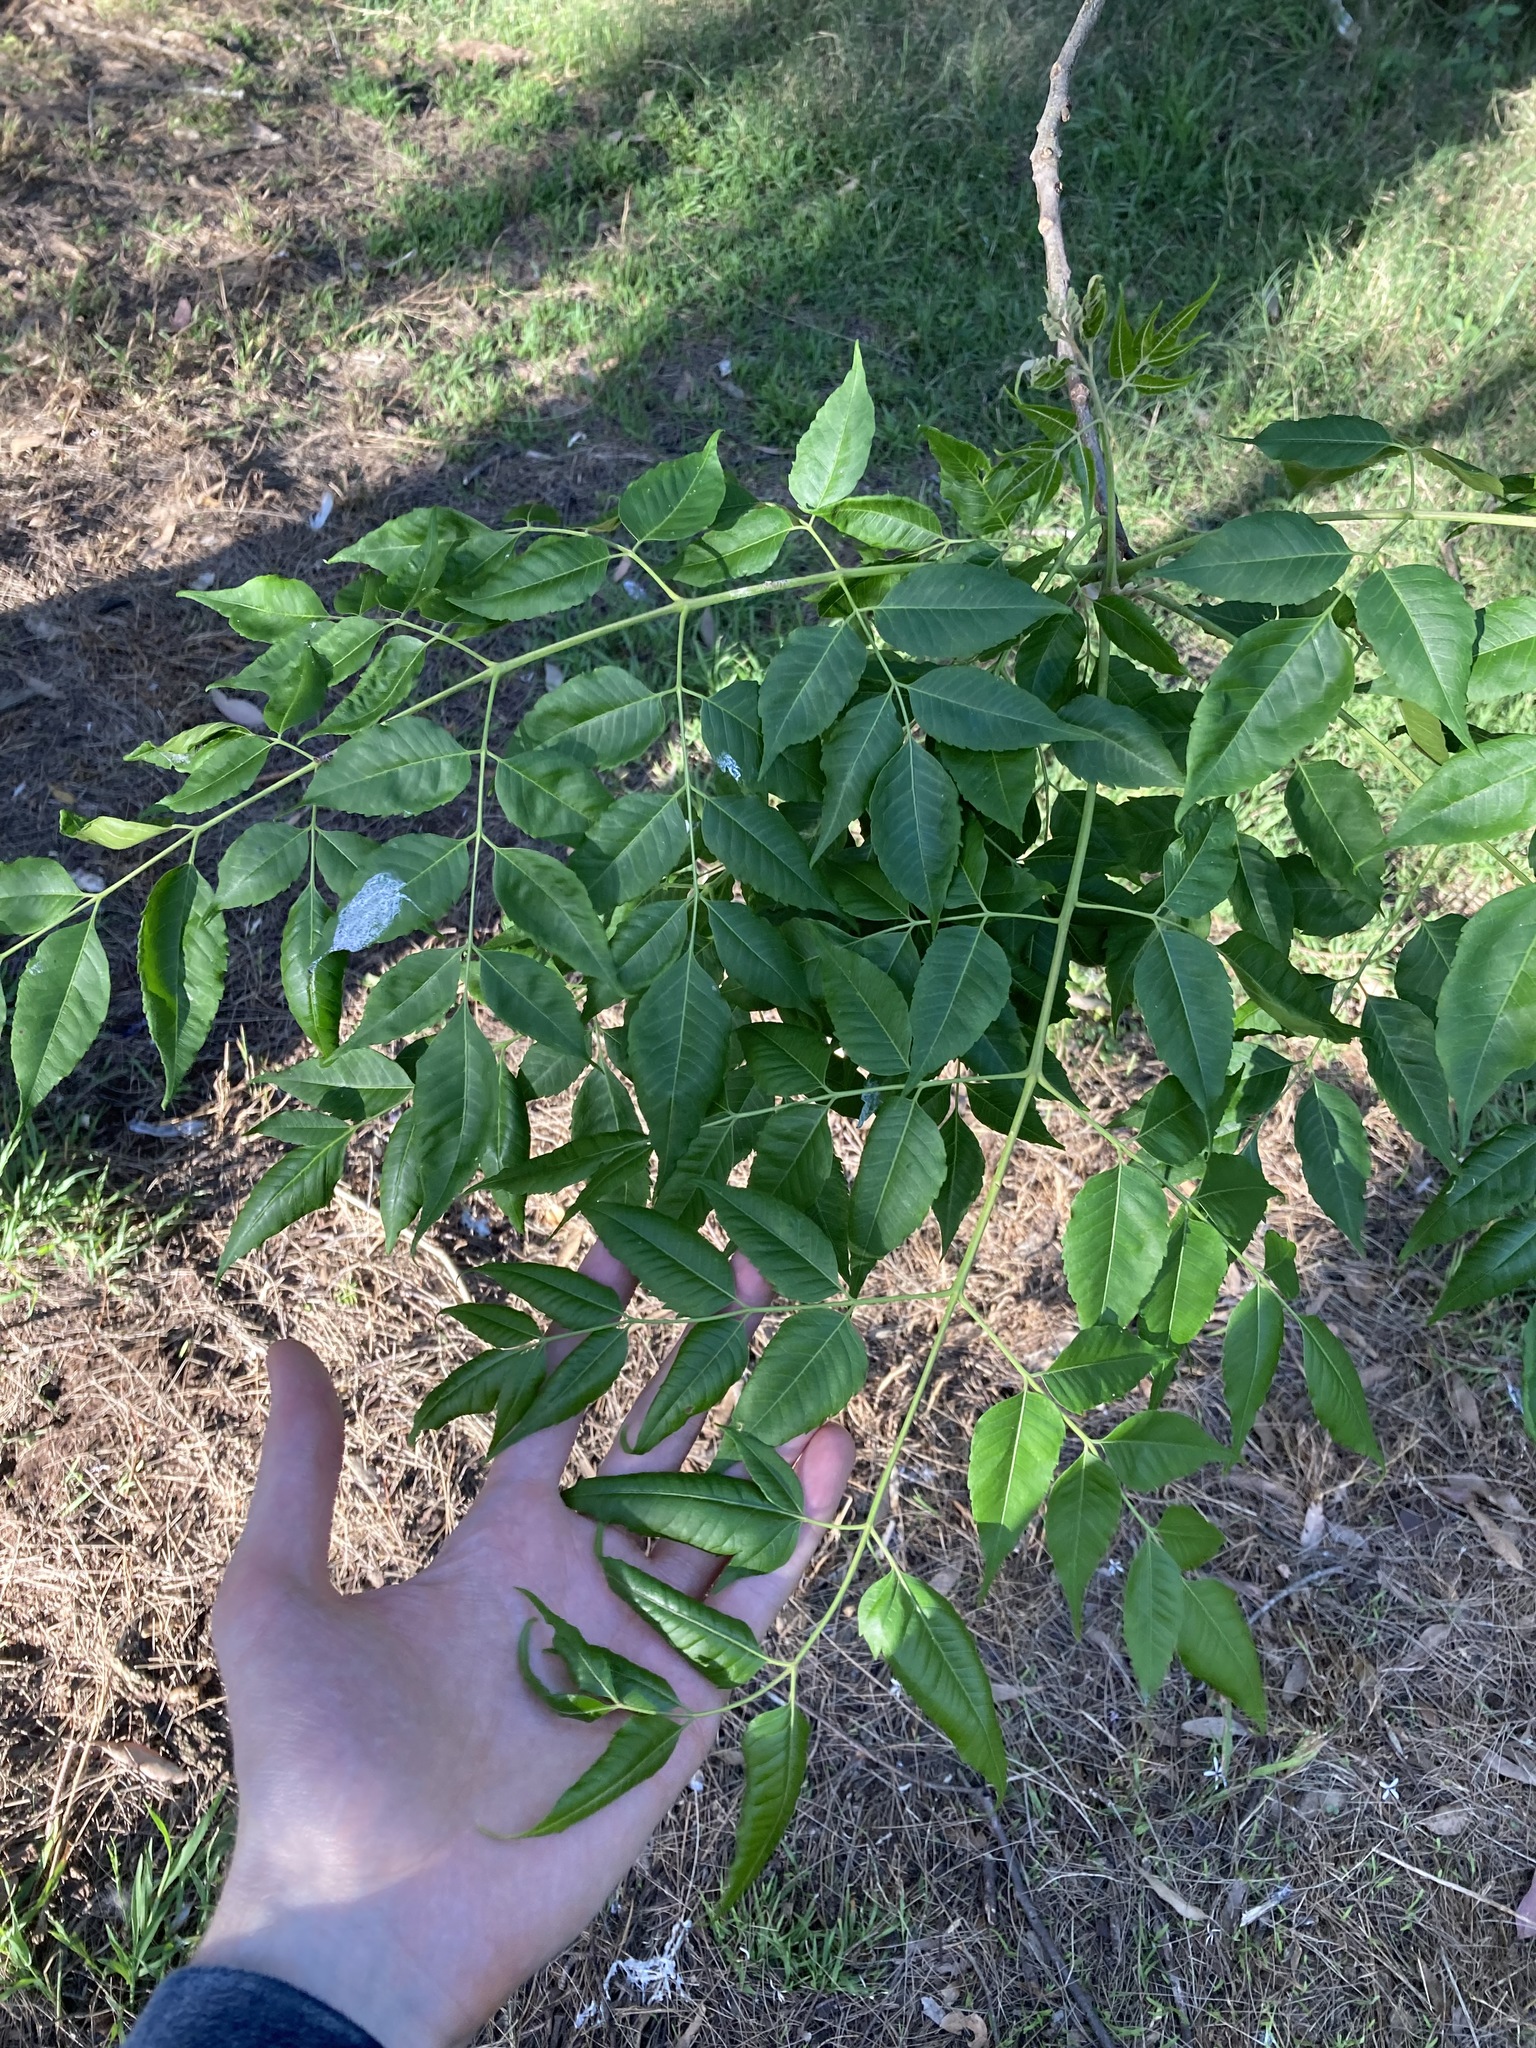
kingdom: Plantae
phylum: Tracheophyta
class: Magnoliopsida
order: Sapindales
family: Meliaceae
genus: Melia
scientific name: Melia azedarach
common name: Chinaberrytree
